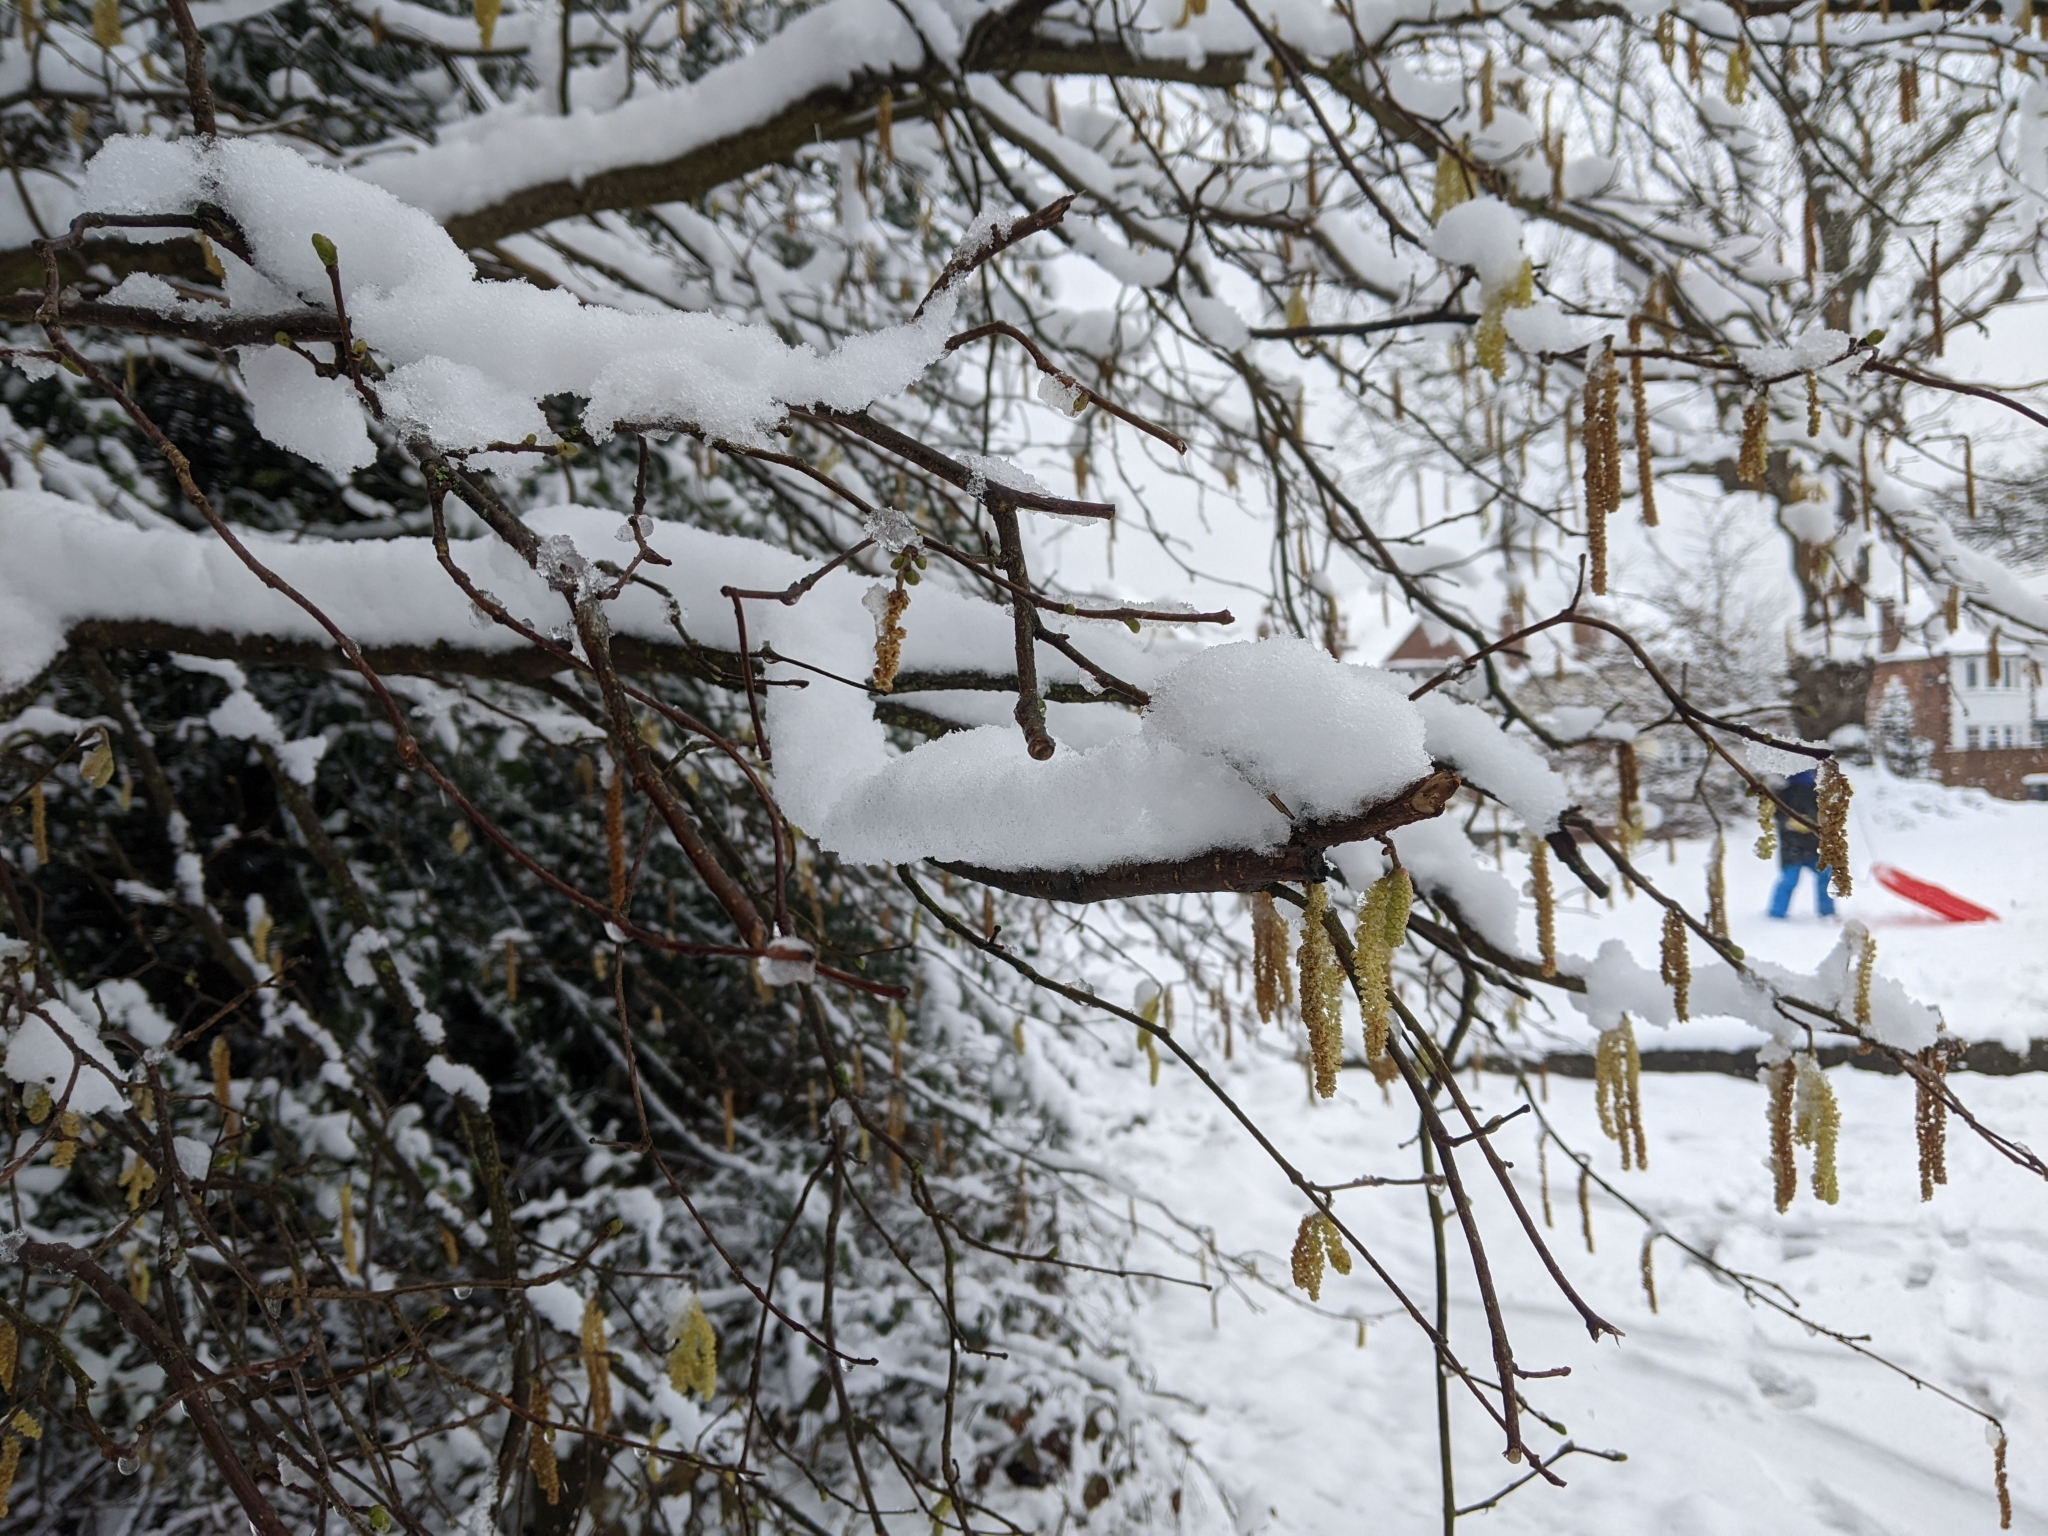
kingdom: Plantae
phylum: Tracheophyta
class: Magnoliopsida
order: Fagales
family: Betulaceae
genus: Corylus
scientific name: Corylus avellana
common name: European hazel
